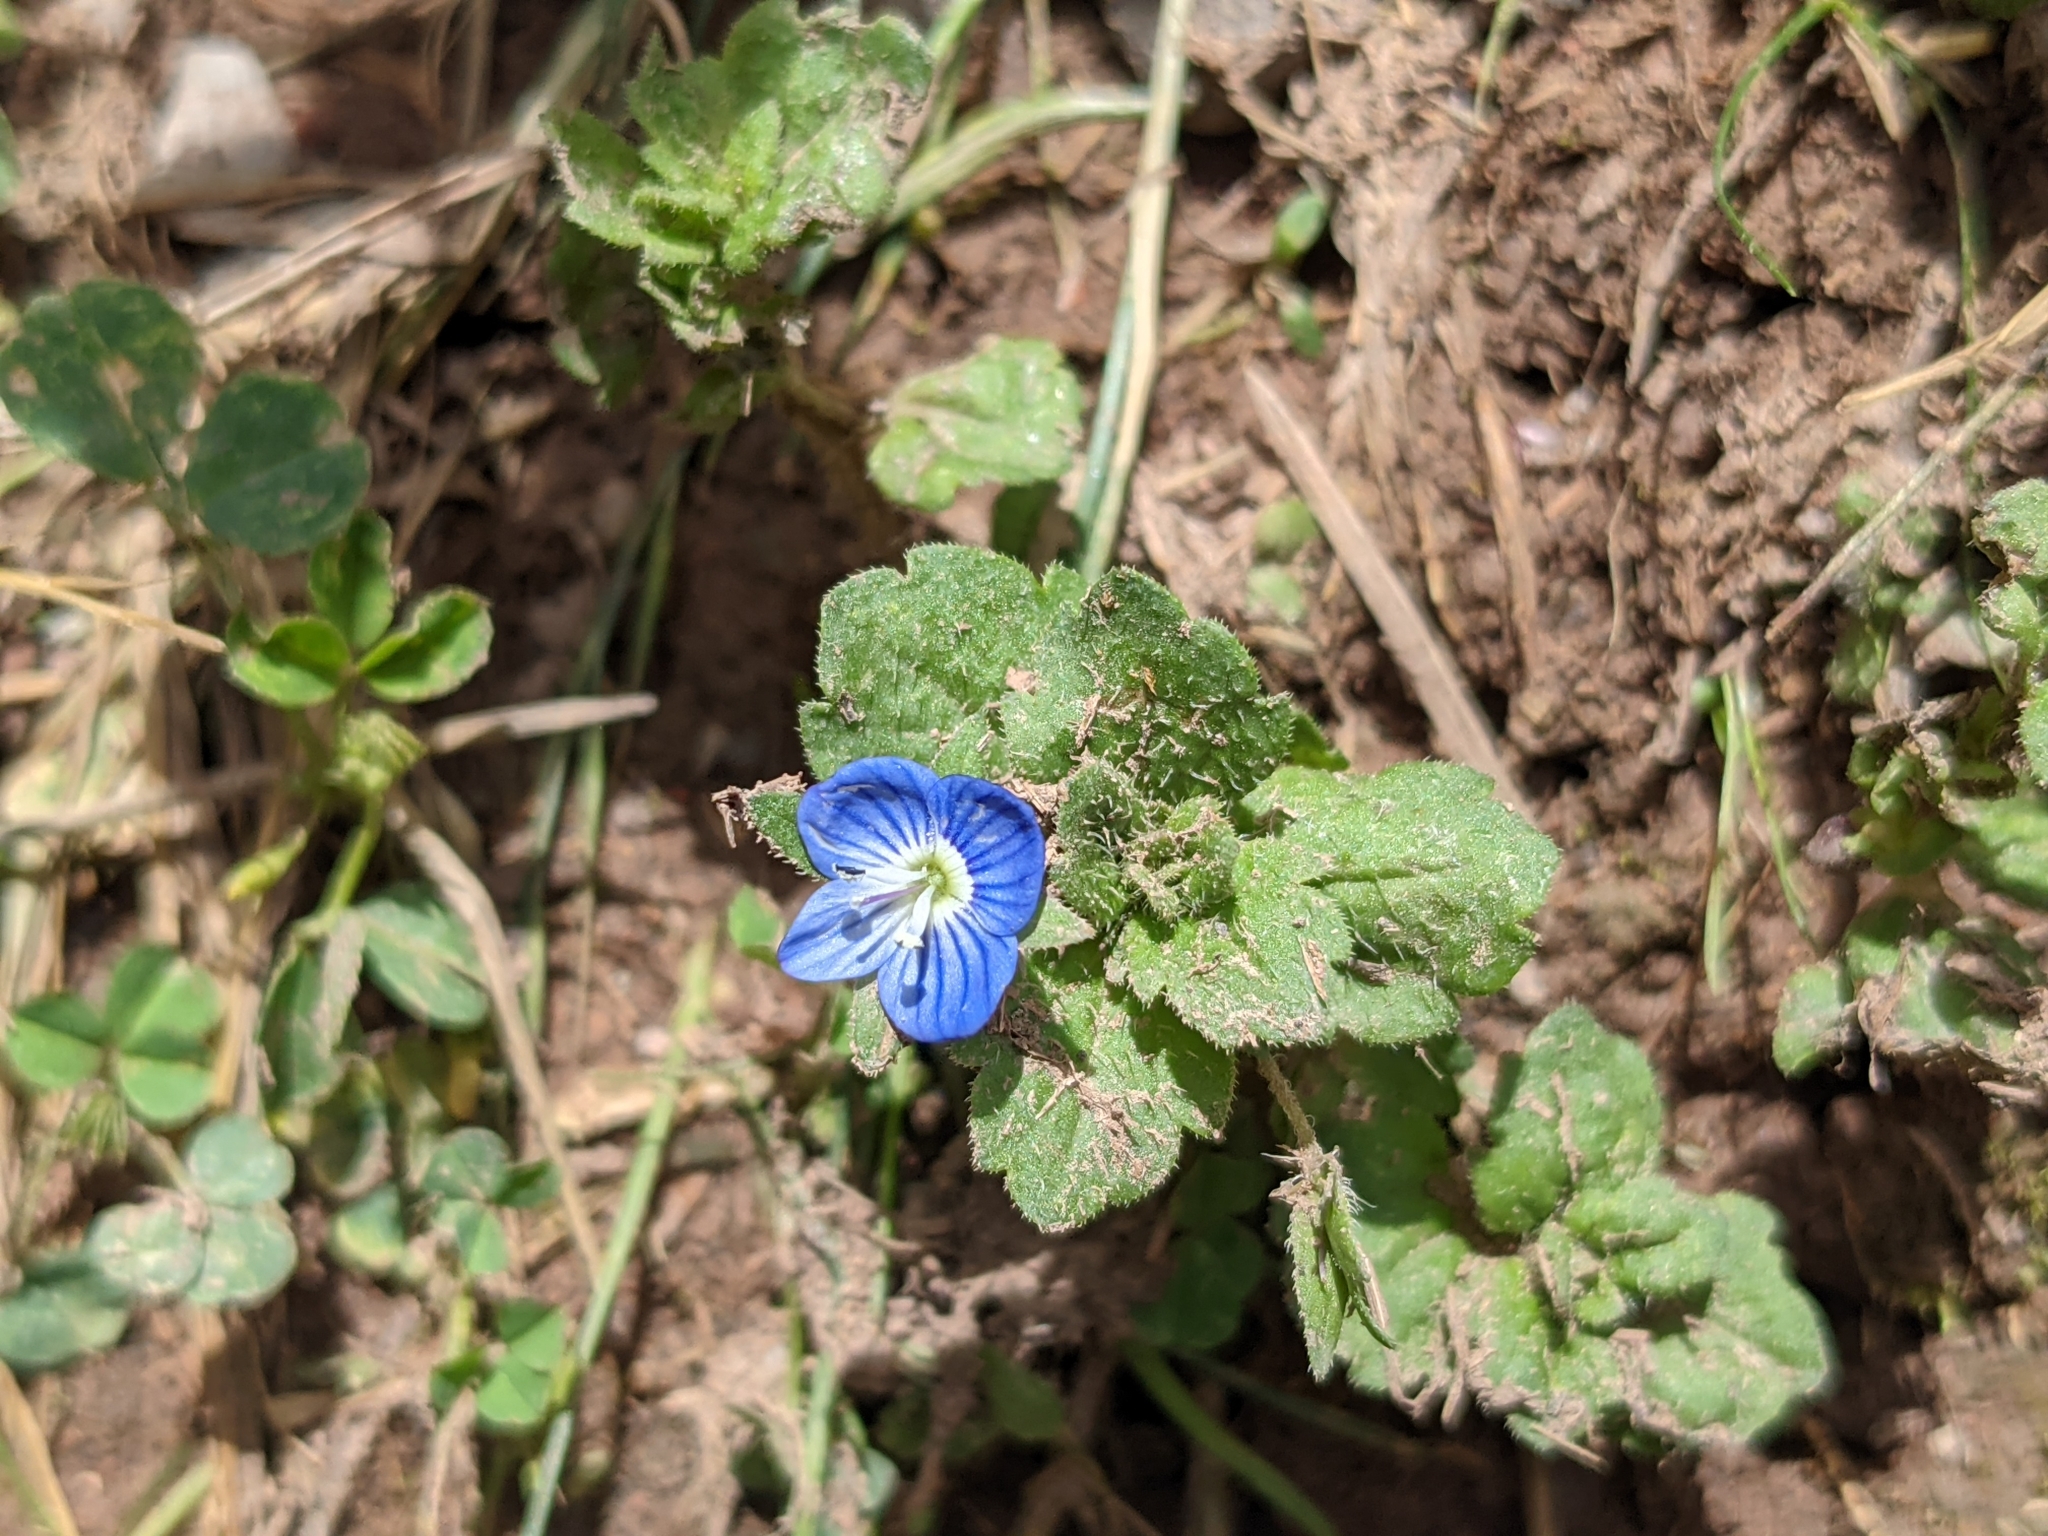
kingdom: Plantae
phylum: Tracheophyta
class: Magnoliopsida
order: Lamiales
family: Plantaginaceae
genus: Veronica
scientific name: Veronica persica
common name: Common field-speedwell
